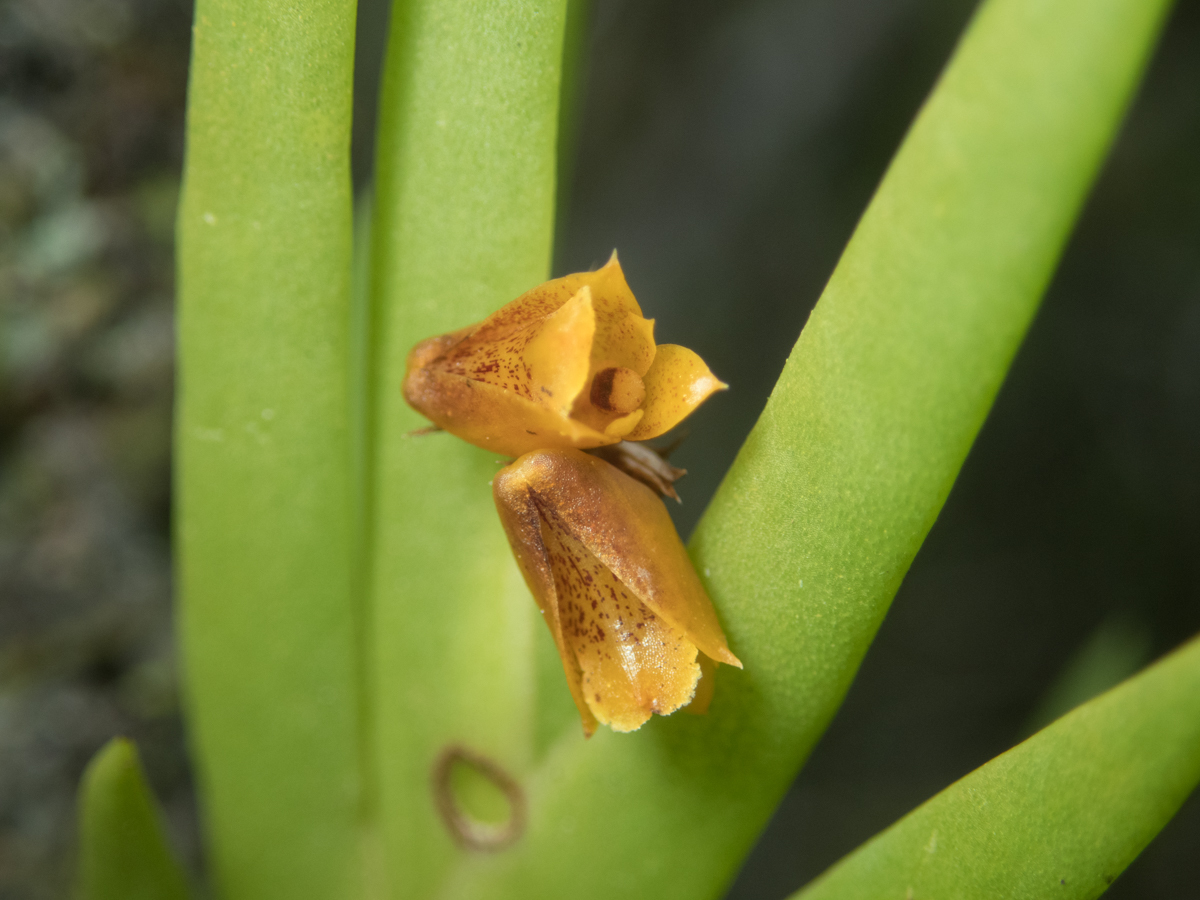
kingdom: Plantae
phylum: Tracheophyta
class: Liliopsida
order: Asparagales
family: Orchidaceae
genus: Oxystophyllum
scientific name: Oxystophyllum carnosum
